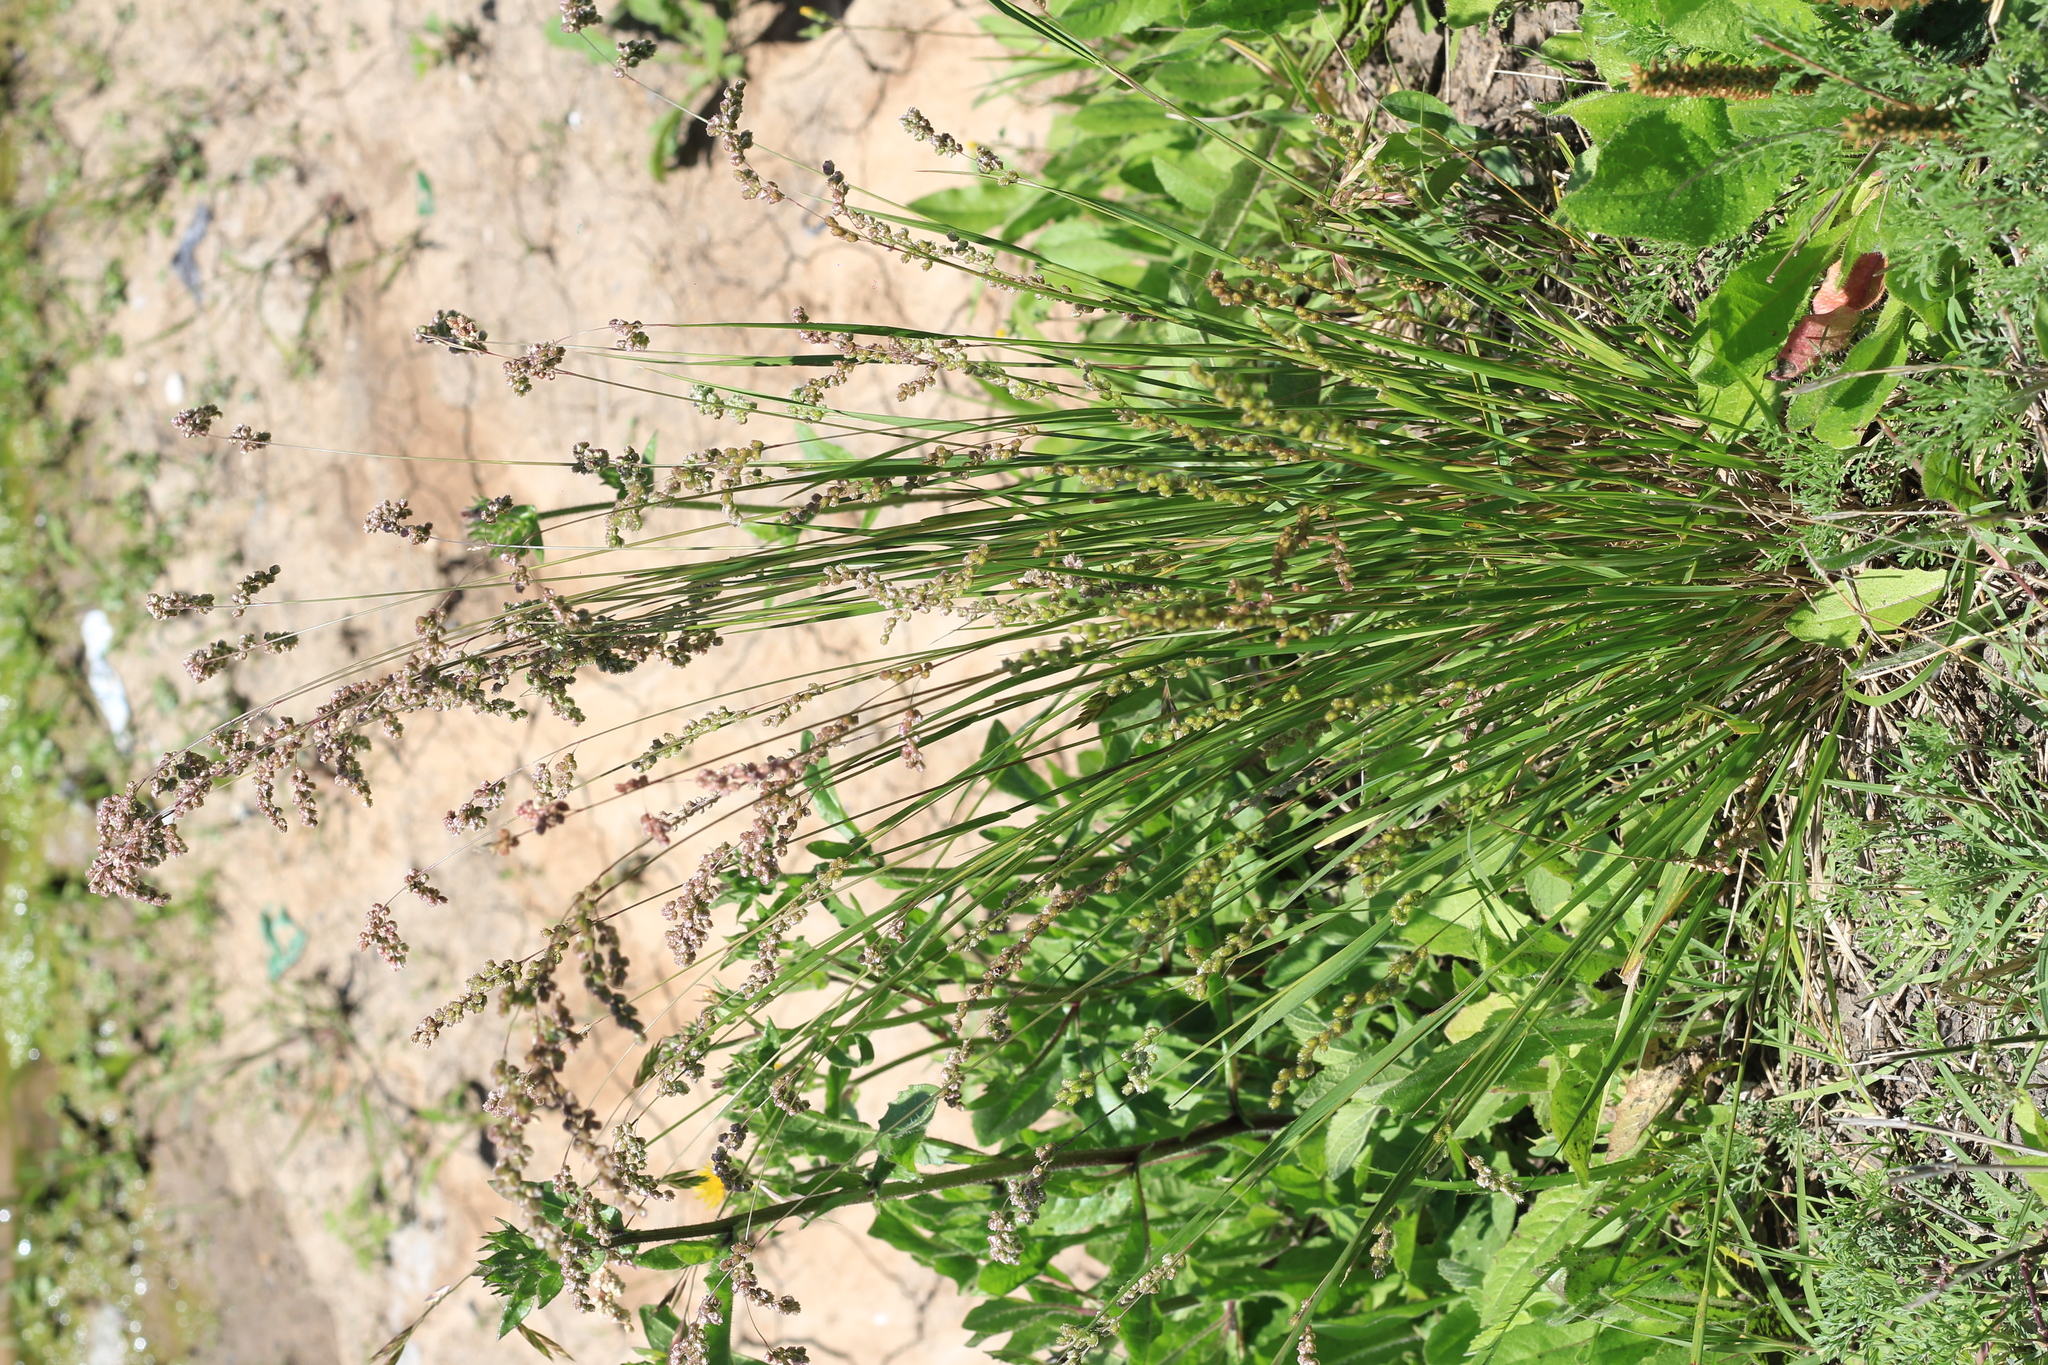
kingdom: Plantae
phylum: Tracheophyta
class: Liliopsida
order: Poales
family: Poaceae
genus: Chascolytrum
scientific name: Chascolytrum subaristatum
